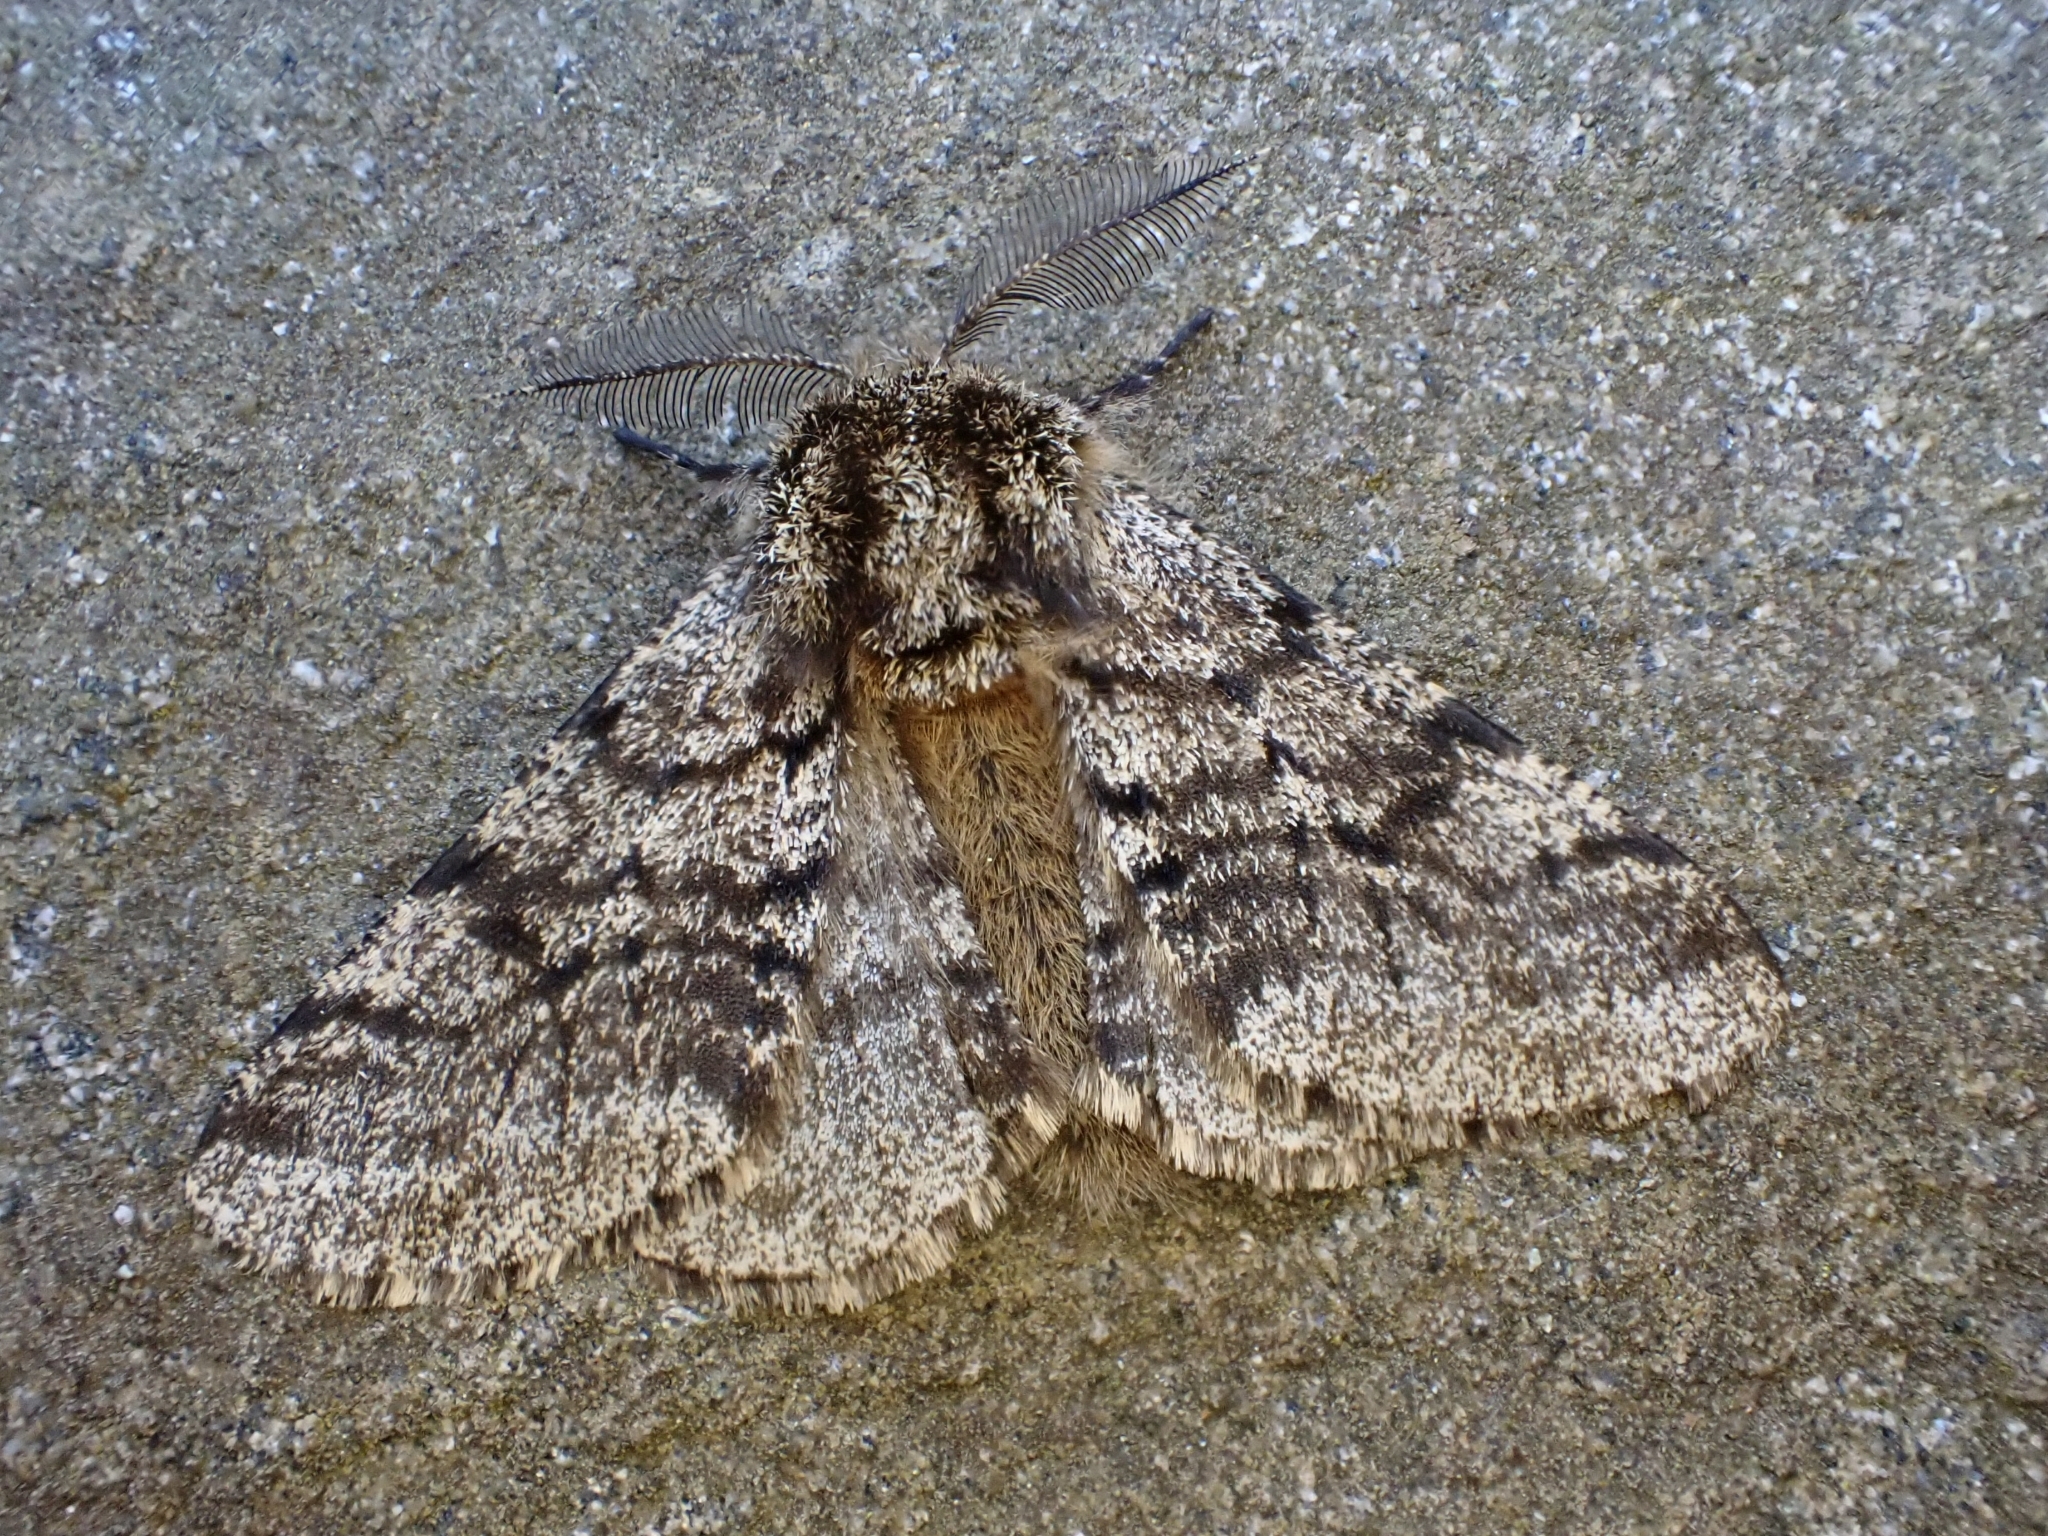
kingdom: Animalia
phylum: Arthropoda
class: Insecta
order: Lepidoptera
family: Geometridae
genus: Lycia
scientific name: Lycia hirtaria
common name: Brindled beauty
